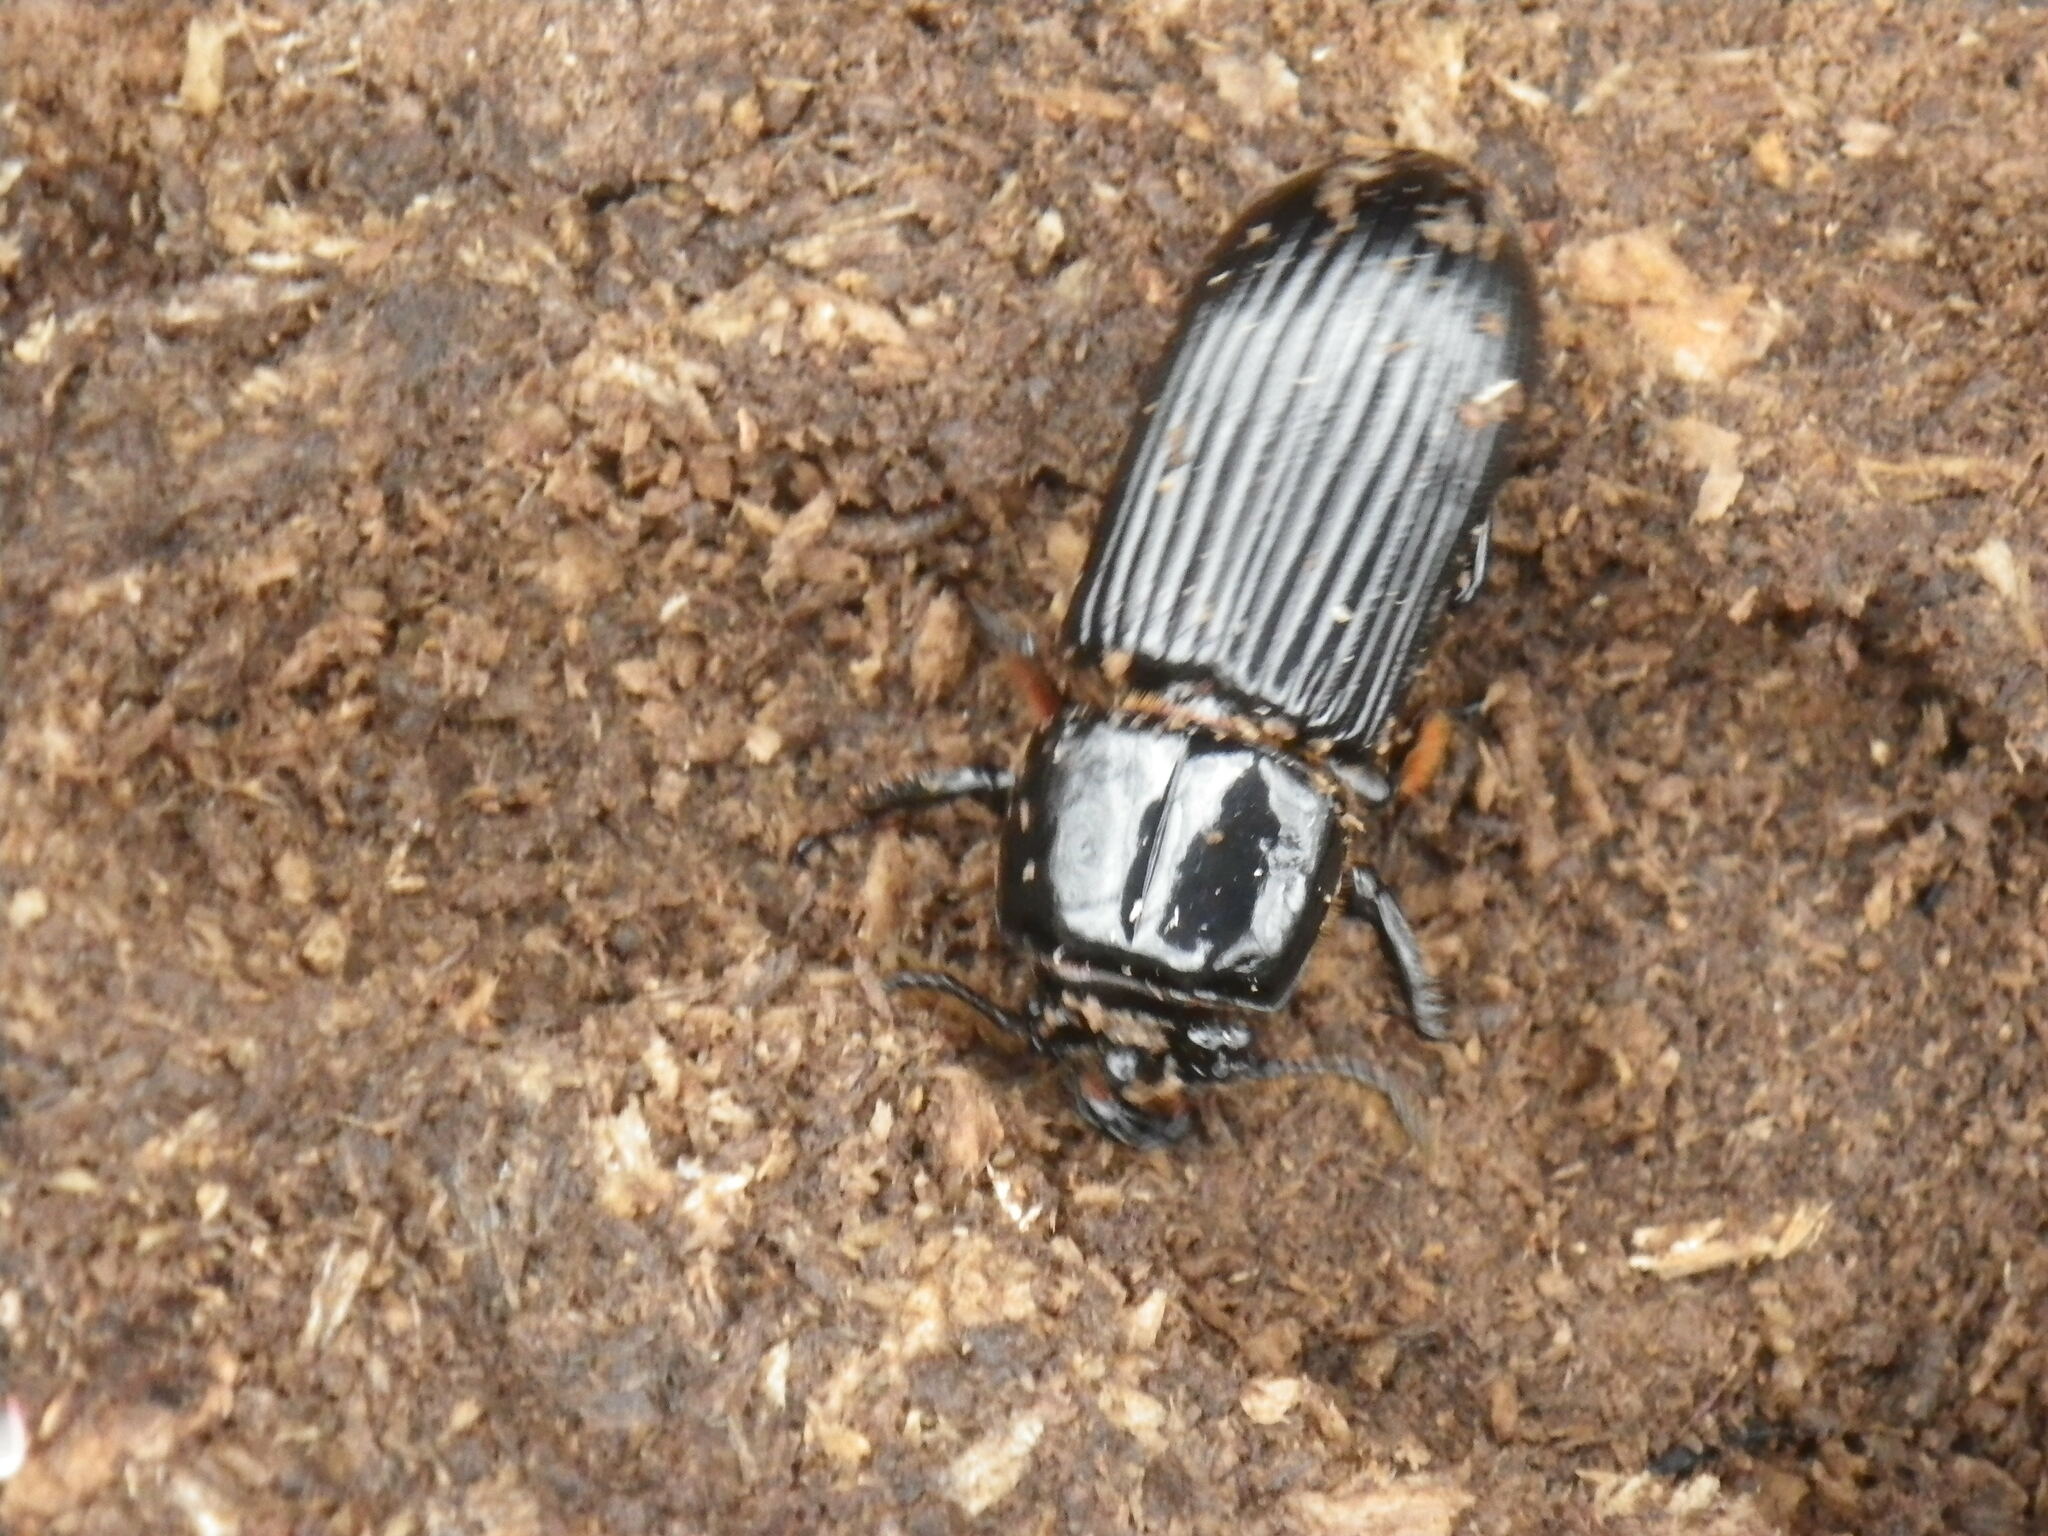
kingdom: Animalia
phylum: Arthropoda
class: Insecta
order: Coleoptera
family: Passalidae
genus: Odontotaenius
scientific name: Odontotaenius disjunctus
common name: Patent leather beetle
